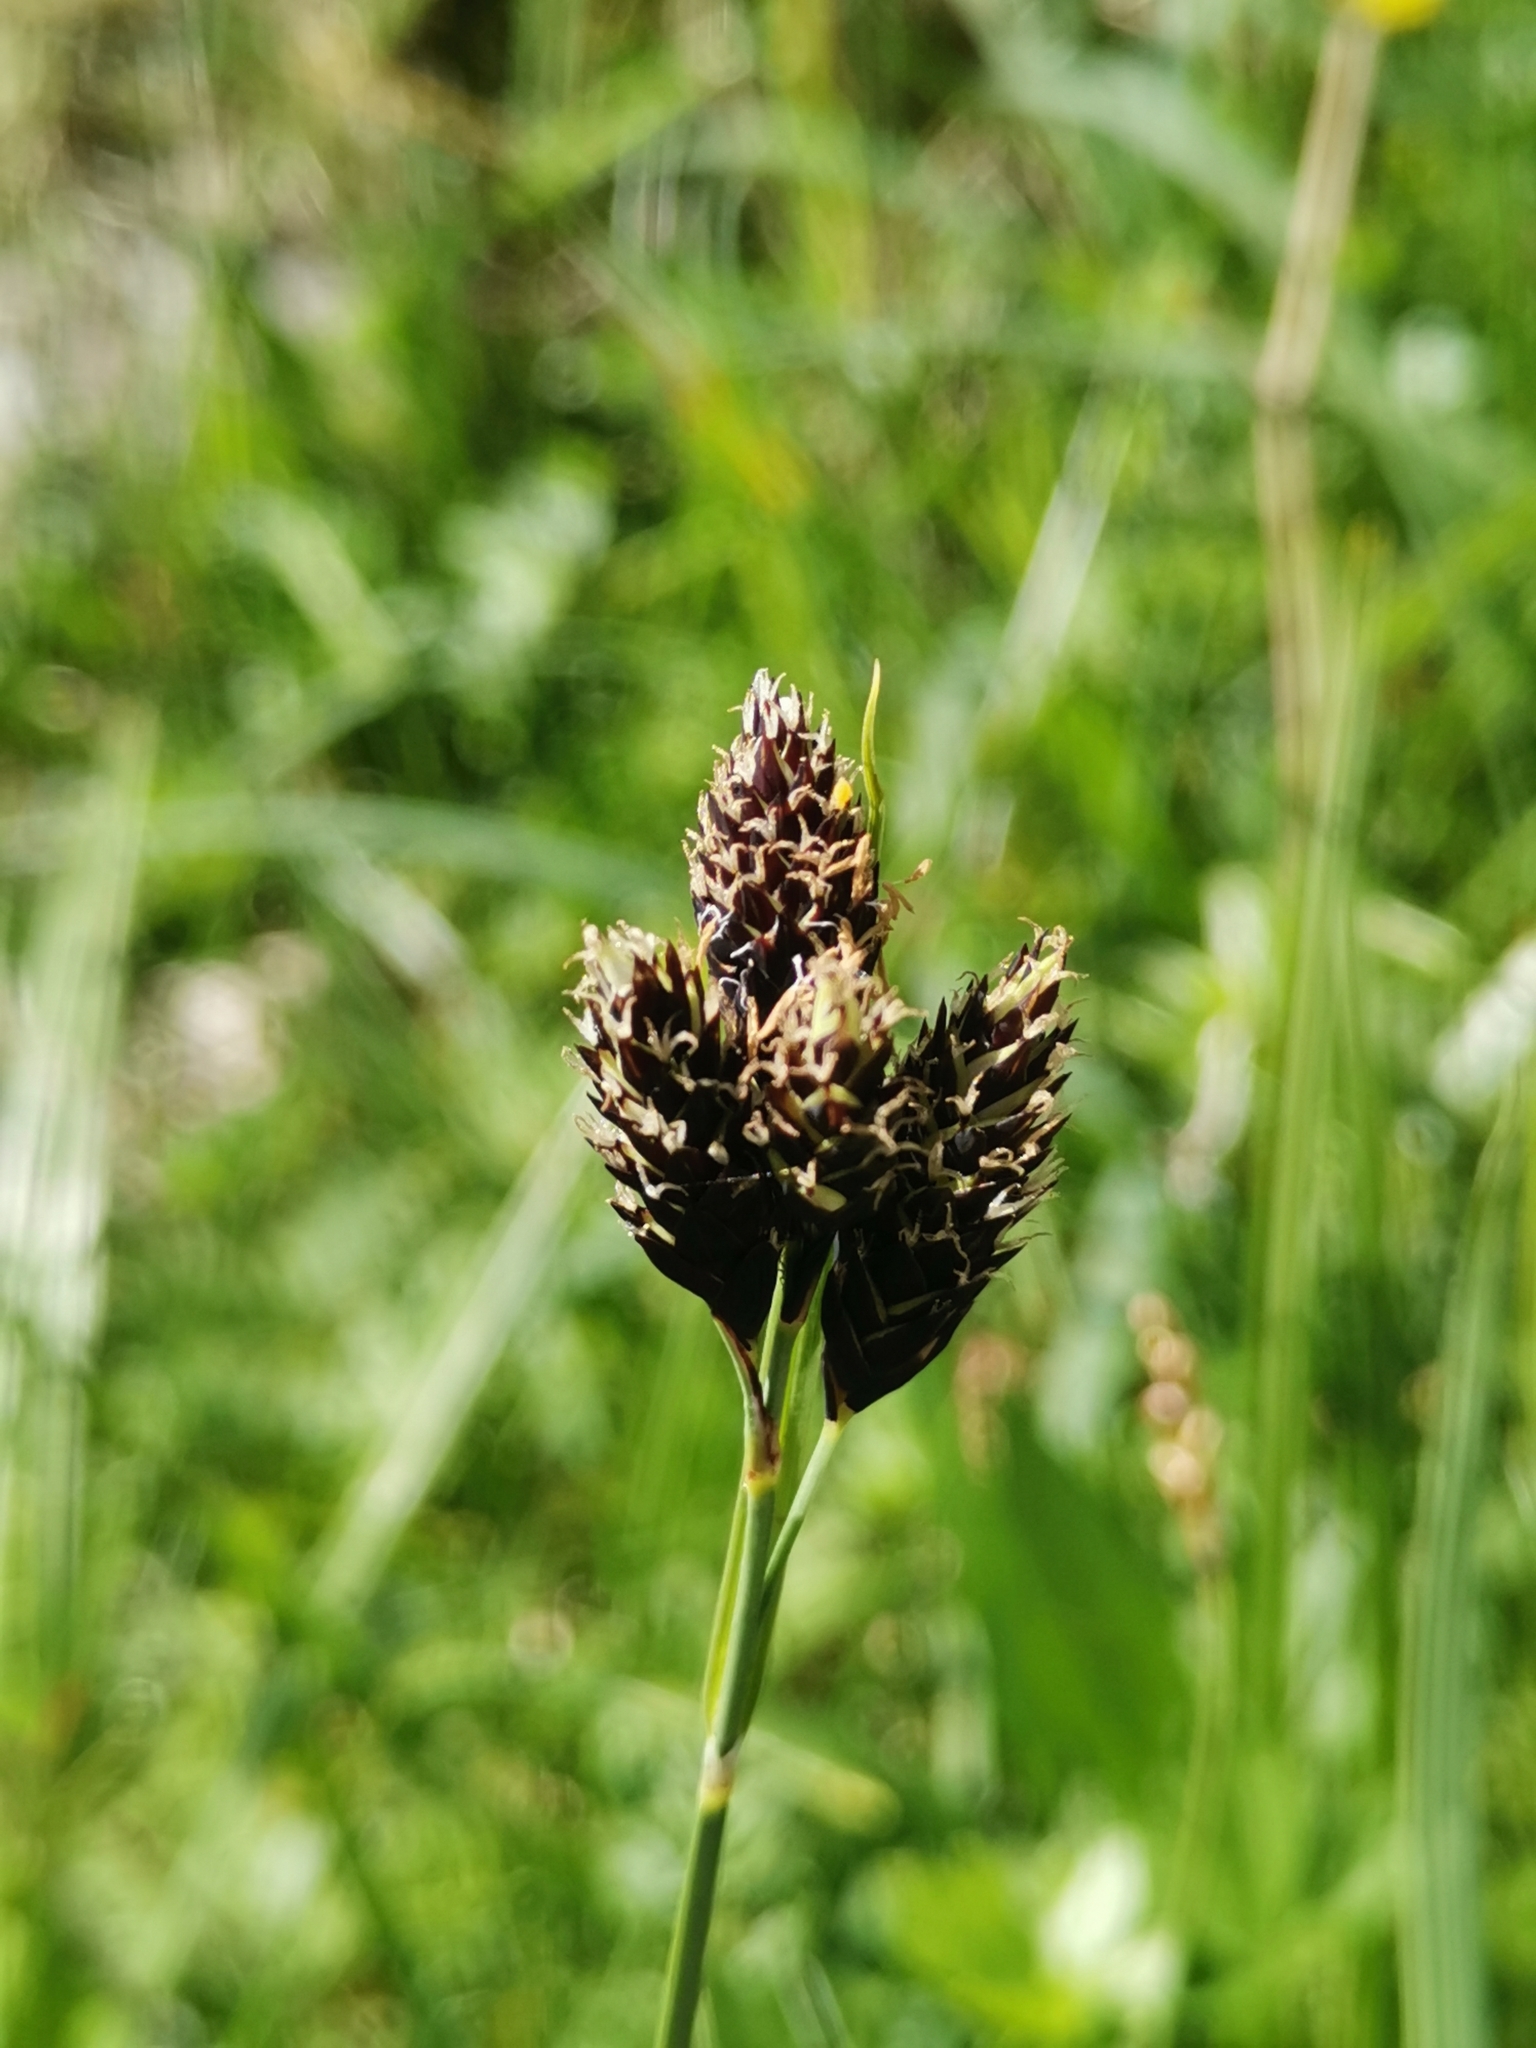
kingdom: Plantae
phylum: Tracheophyta
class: Liliopsida
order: Poales
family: Cyperaceae
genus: Carex
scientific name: Carex atrata
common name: Black alpine sedge
